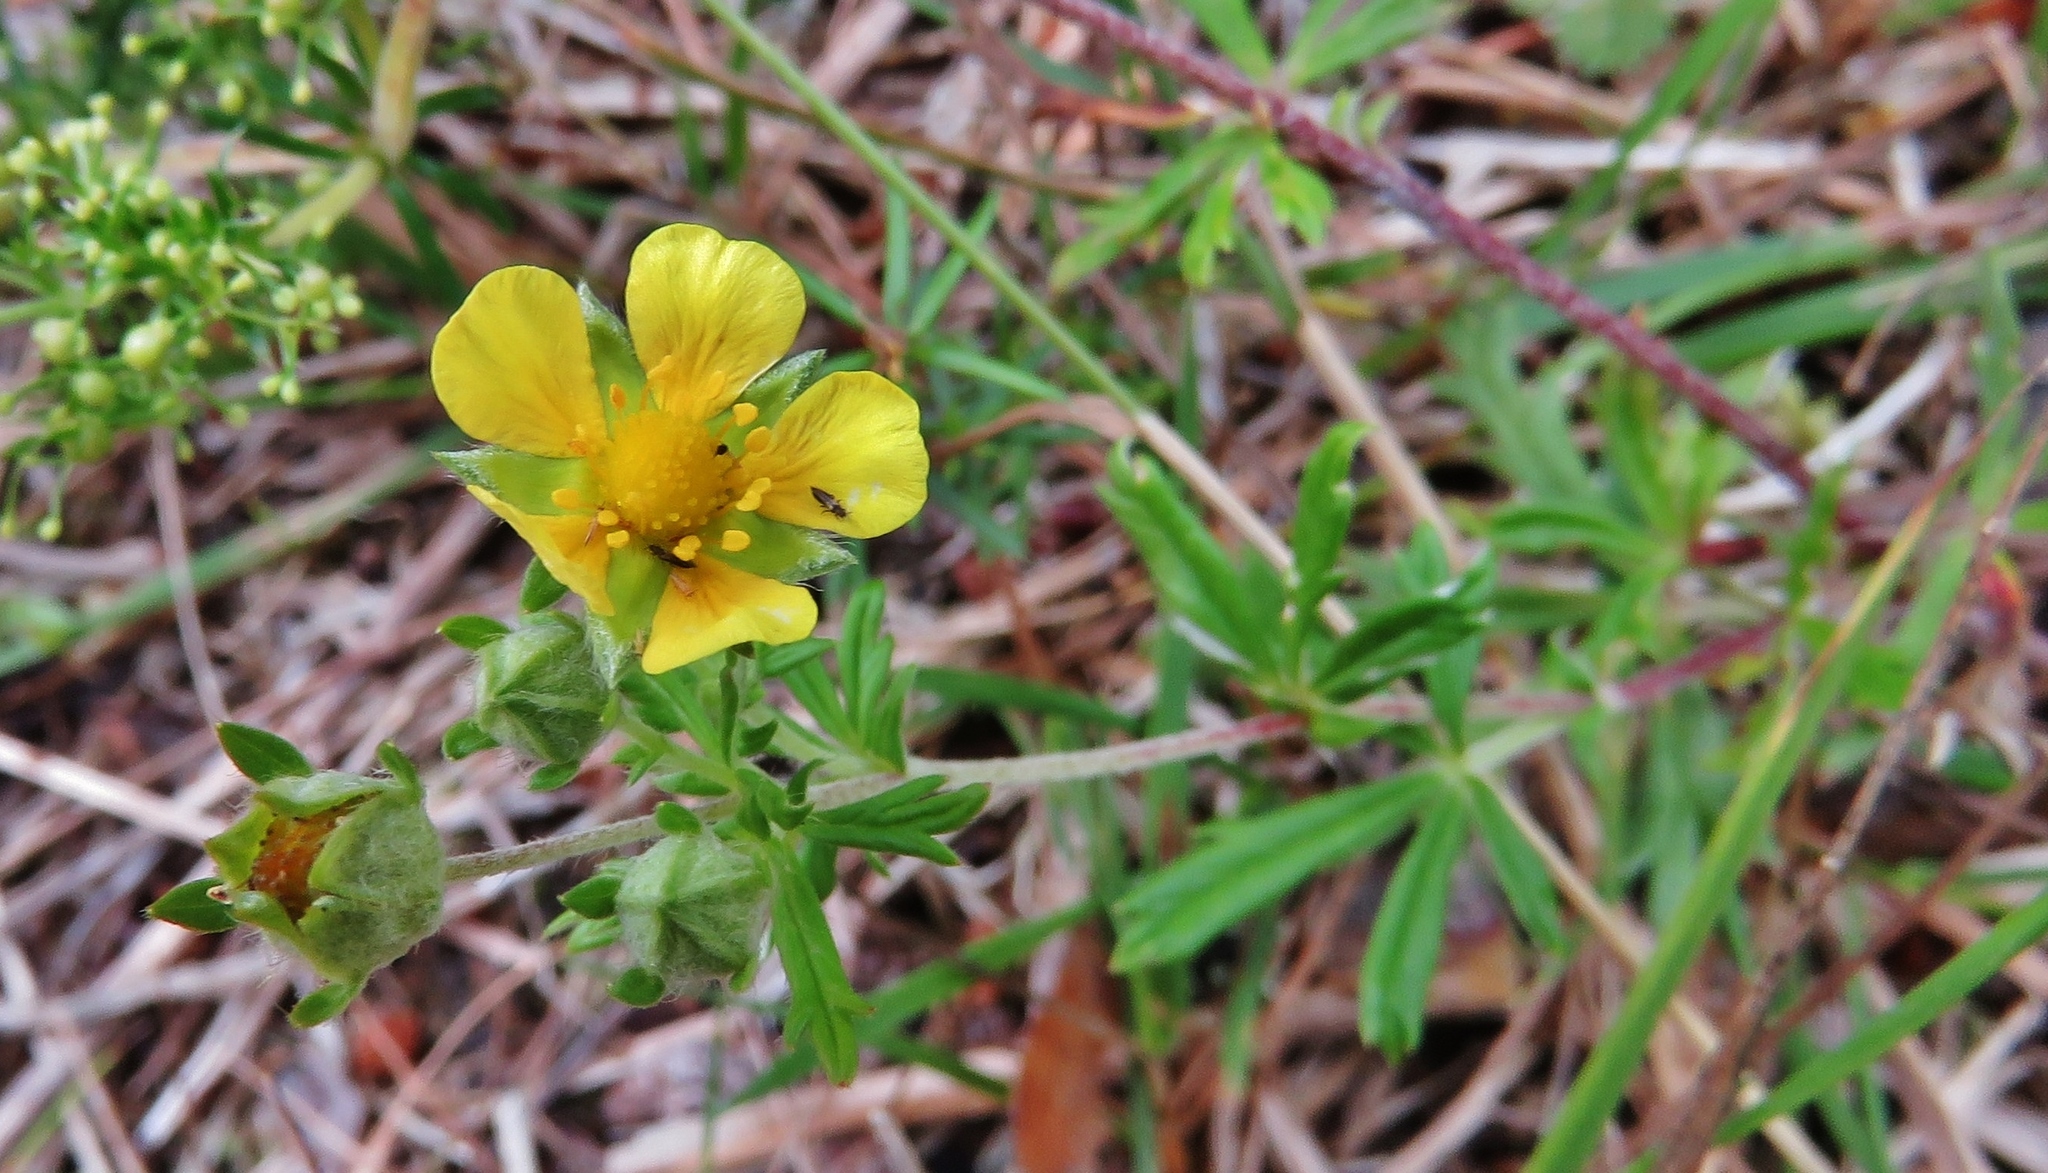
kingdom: Plantae
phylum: Tracheophyta
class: Magnoliopsida
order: Rosales
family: Rosaceae
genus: Potentilla
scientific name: Potentilla argentea
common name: Hoary cinquefoil
